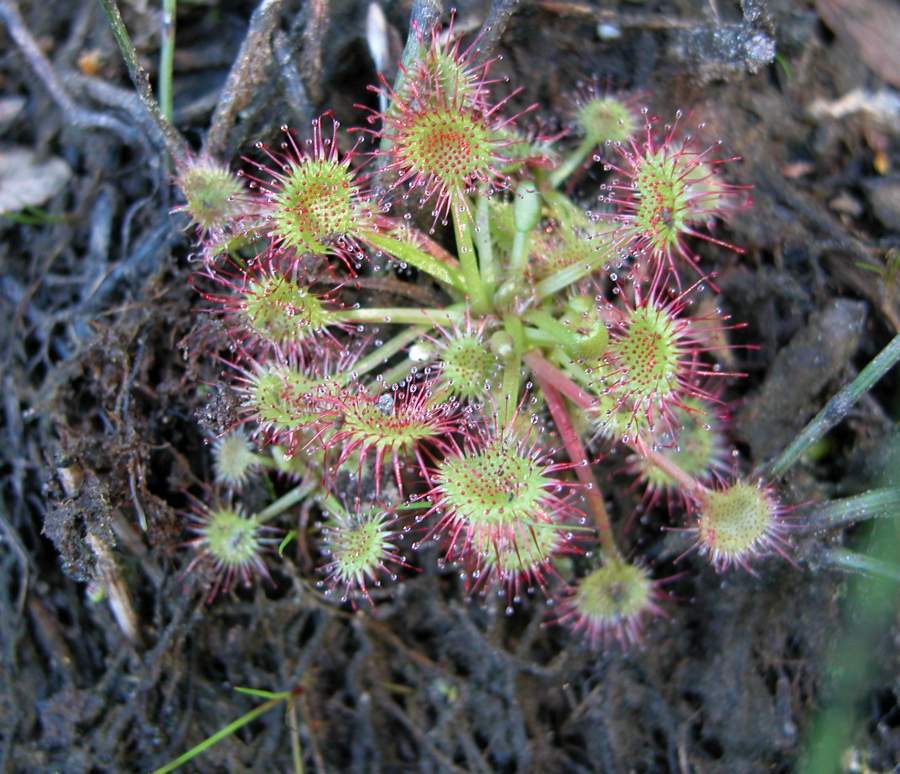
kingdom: Plantae
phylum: Tracheophyta
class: Magnoliopsida
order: Caryophyllales
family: Droseraceae
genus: Drosera
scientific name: Drosera rotundifolia
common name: Round-leaved sundew
